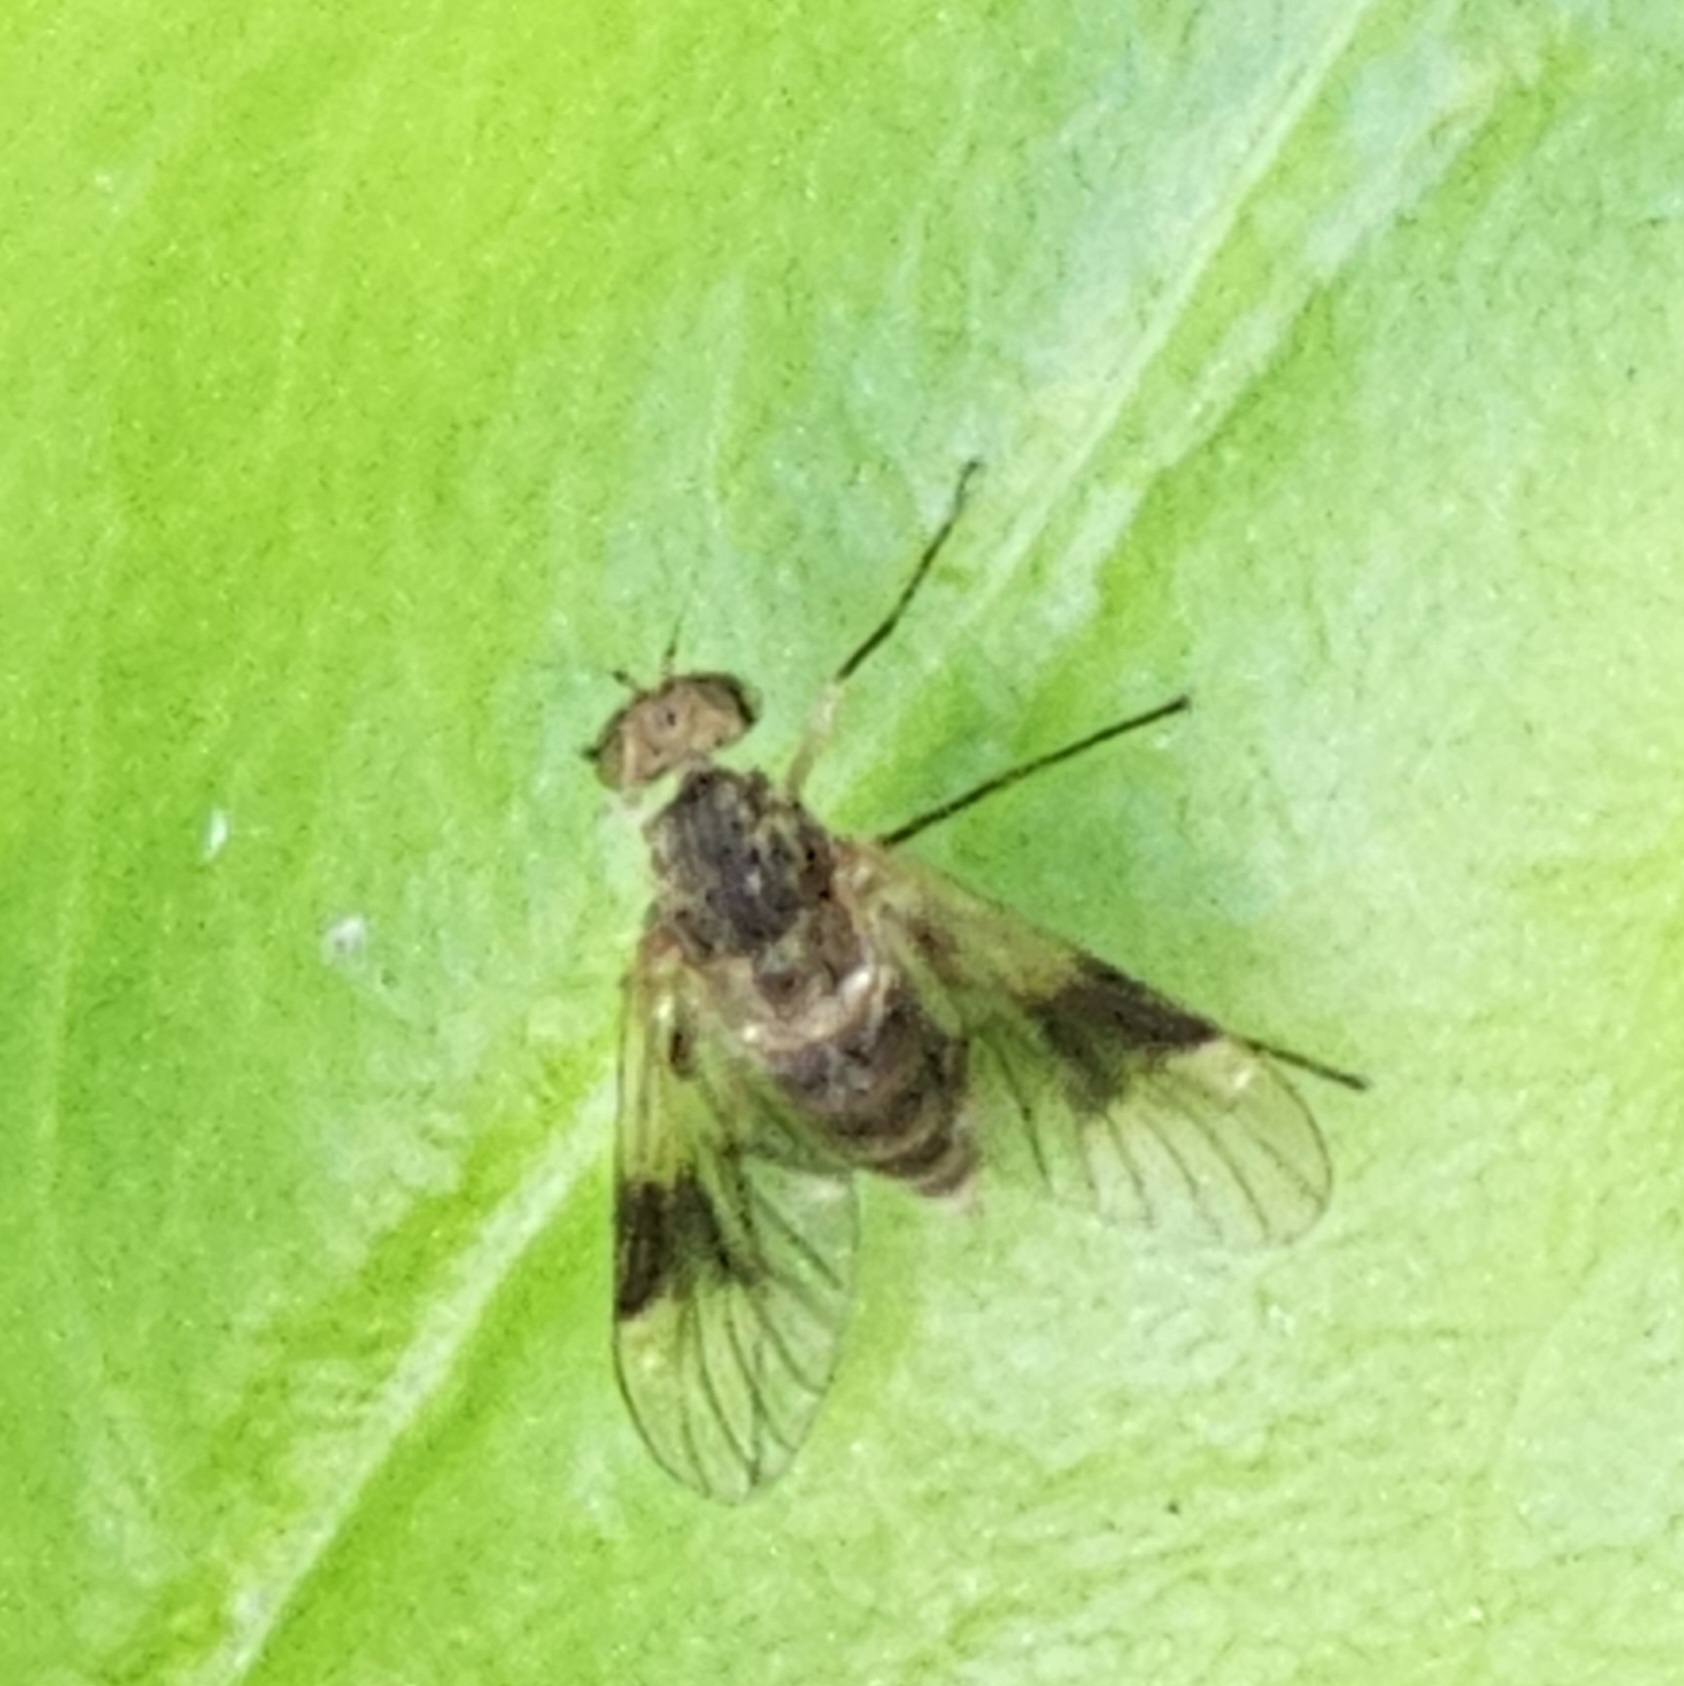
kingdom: Animalia
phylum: Arthropoda
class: Insecta
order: Diptera
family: Rhagionidae
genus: Chrysopilus
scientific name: Chrysopilus quadratus
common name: Quadrate snipe fly
